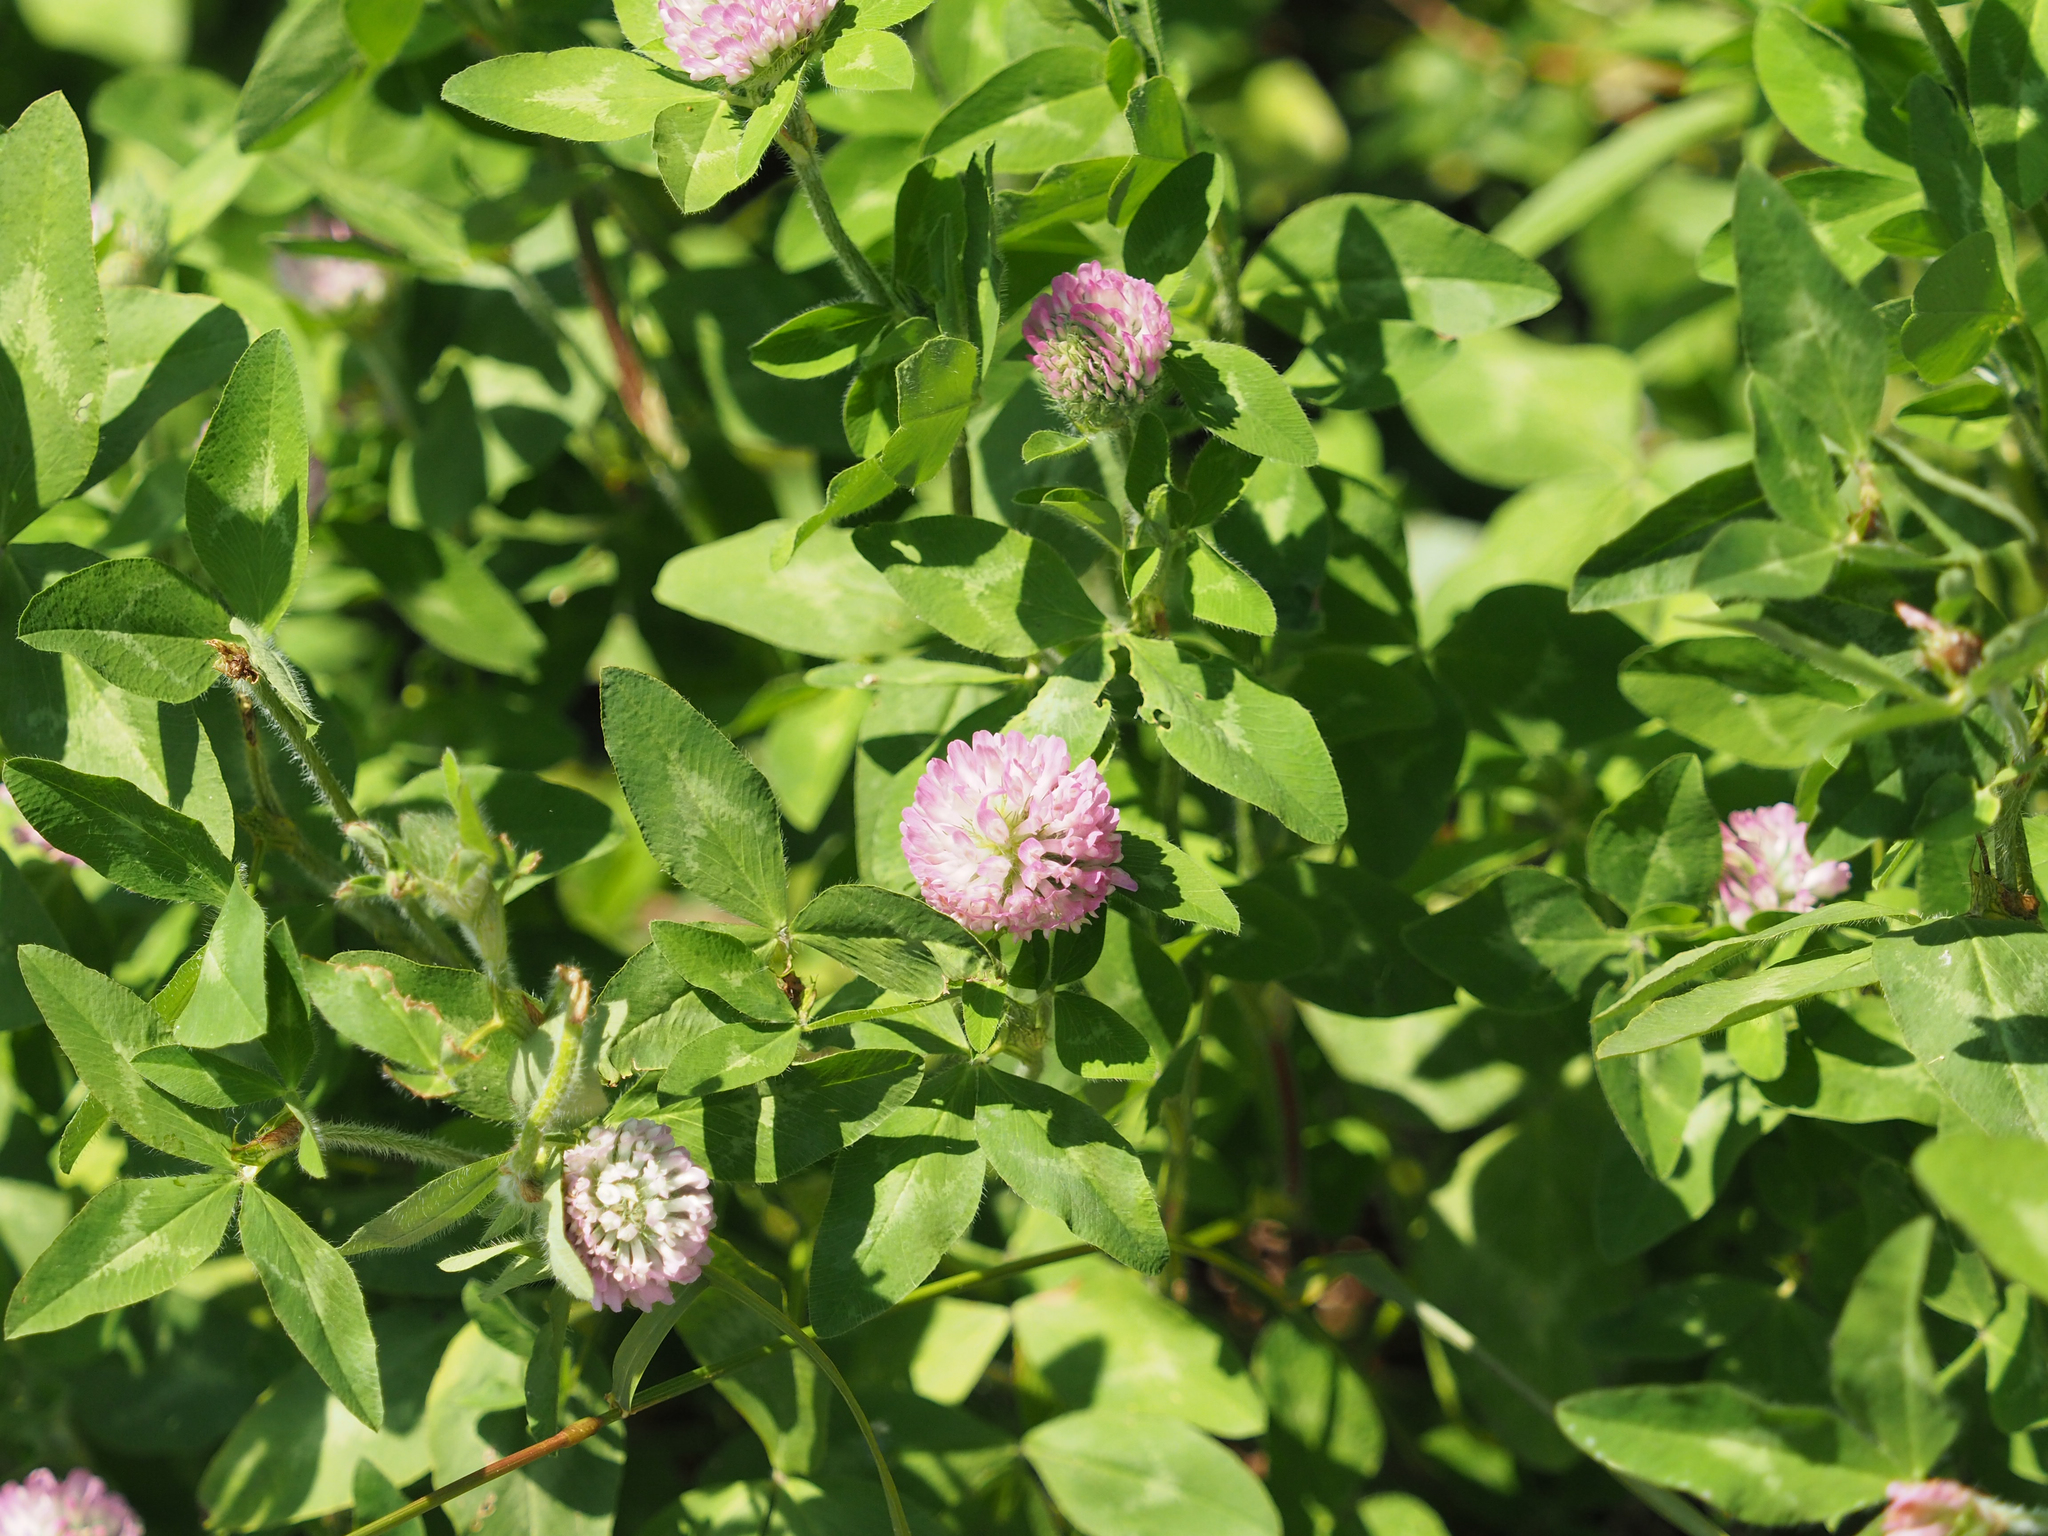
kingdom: Plantae
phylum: Tracheophyta
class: Magnoliopsida
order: Fabales
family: Fabaceae
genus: Trifolium
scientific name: Trifolium pratense
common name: Red clover
